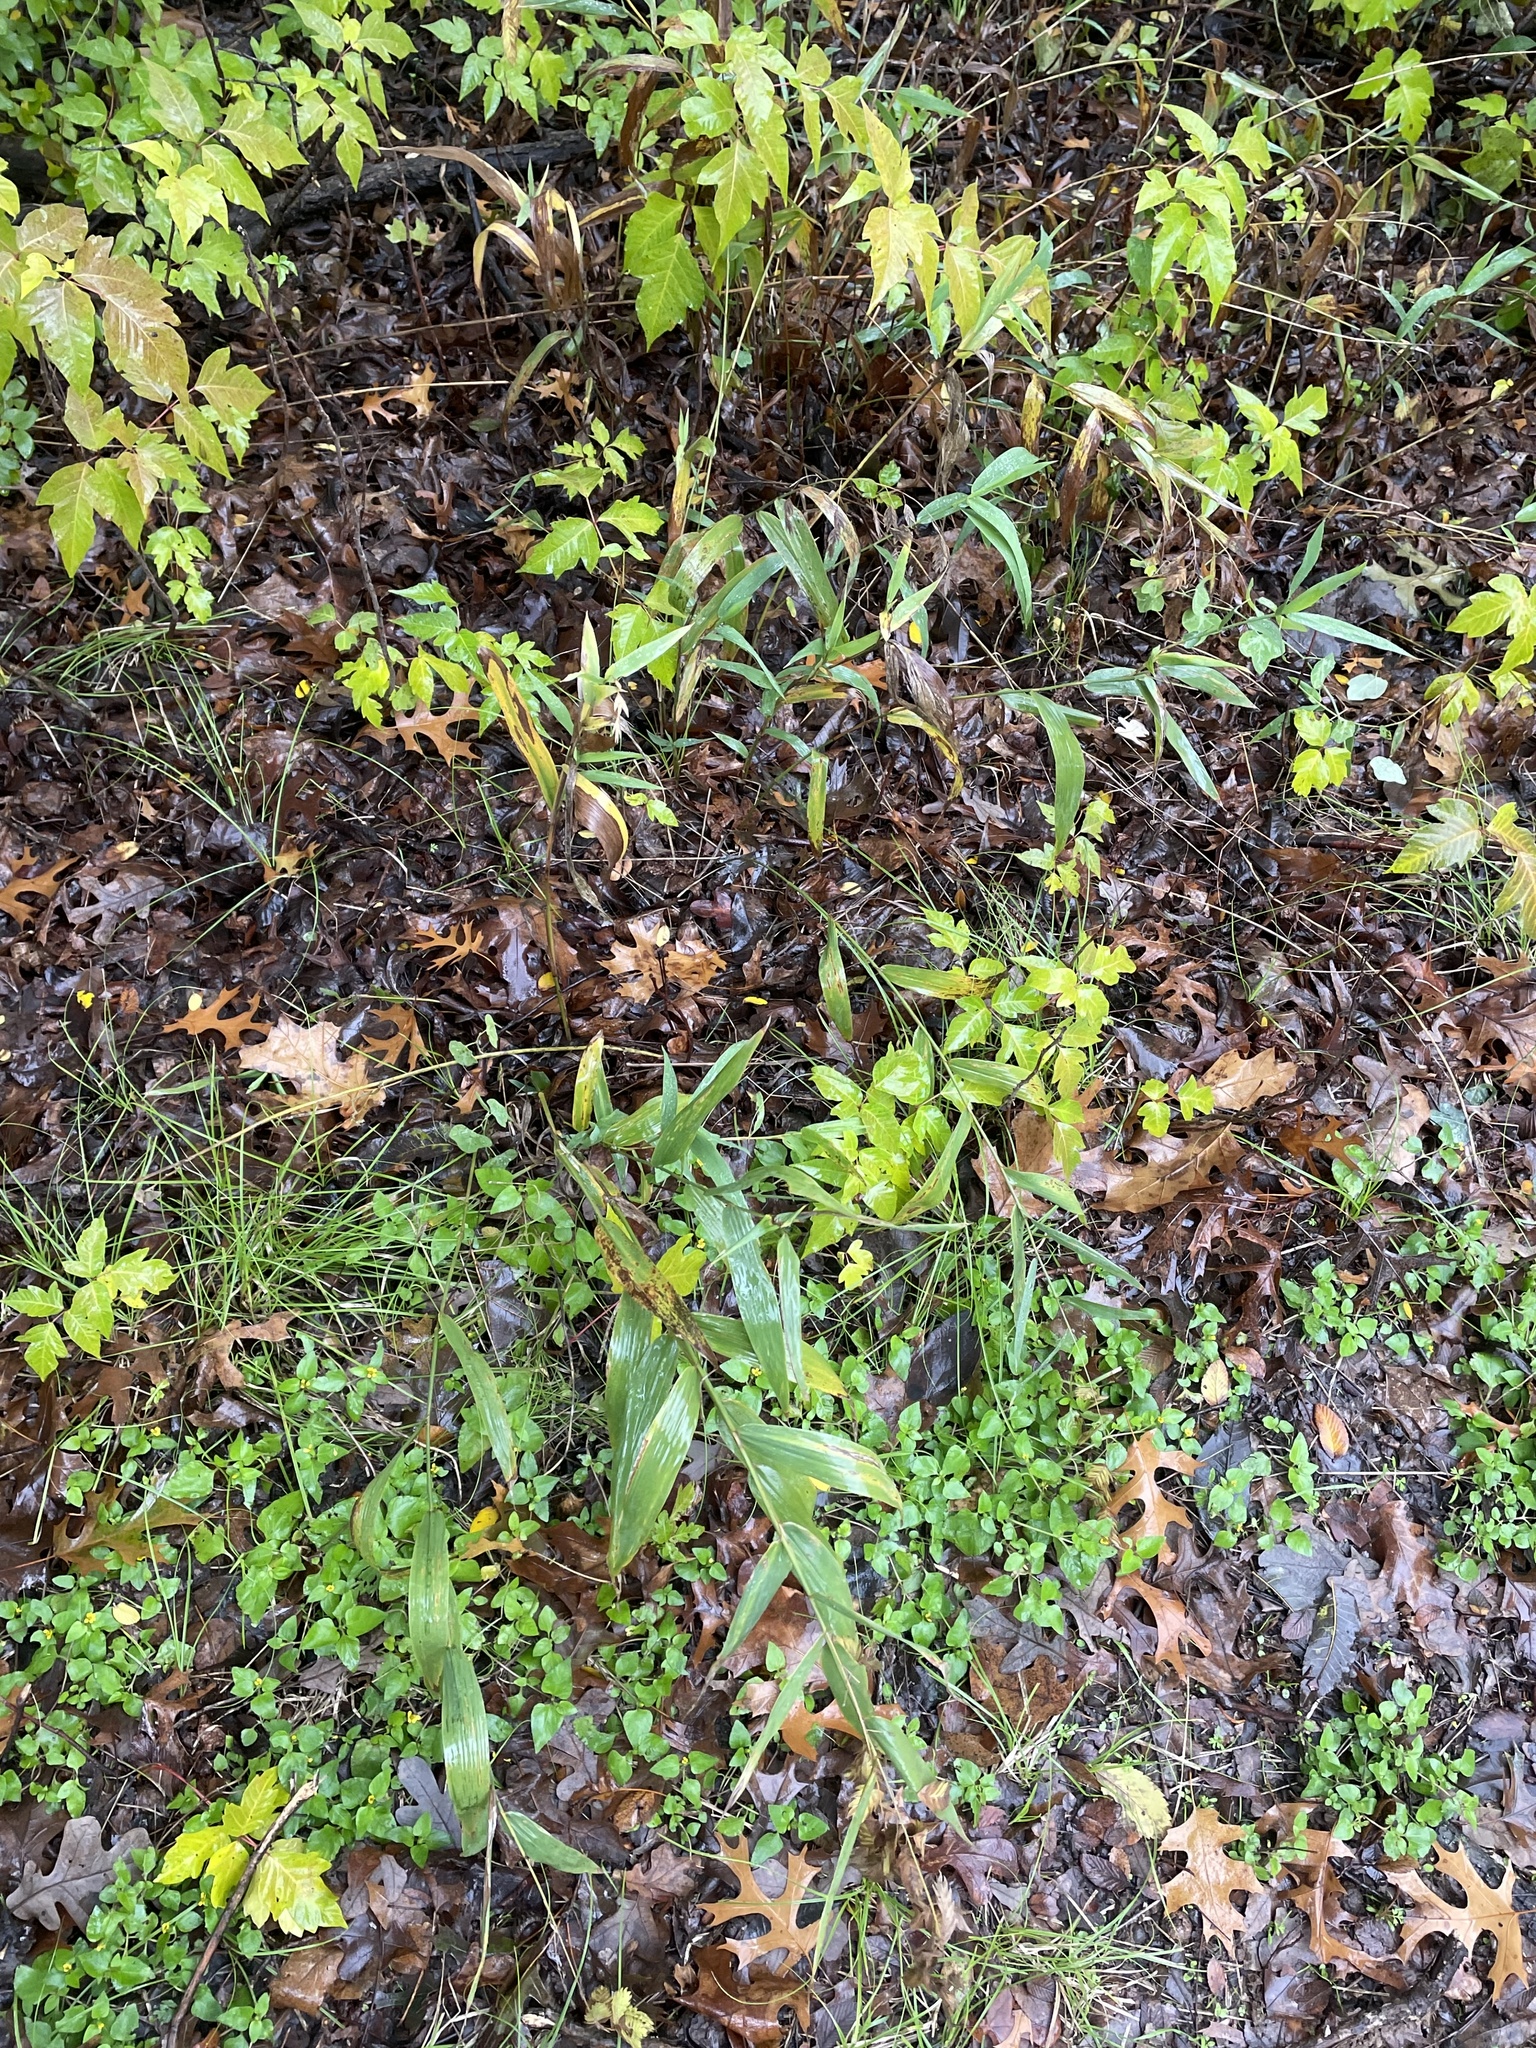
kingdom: Plantae
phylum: Tracheophyta
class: Liliopsida
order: Poales
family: Poaceae
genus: Chasmanthium
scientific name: Chasmanthium latifolium
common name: Broad-leaved chasmanthium
